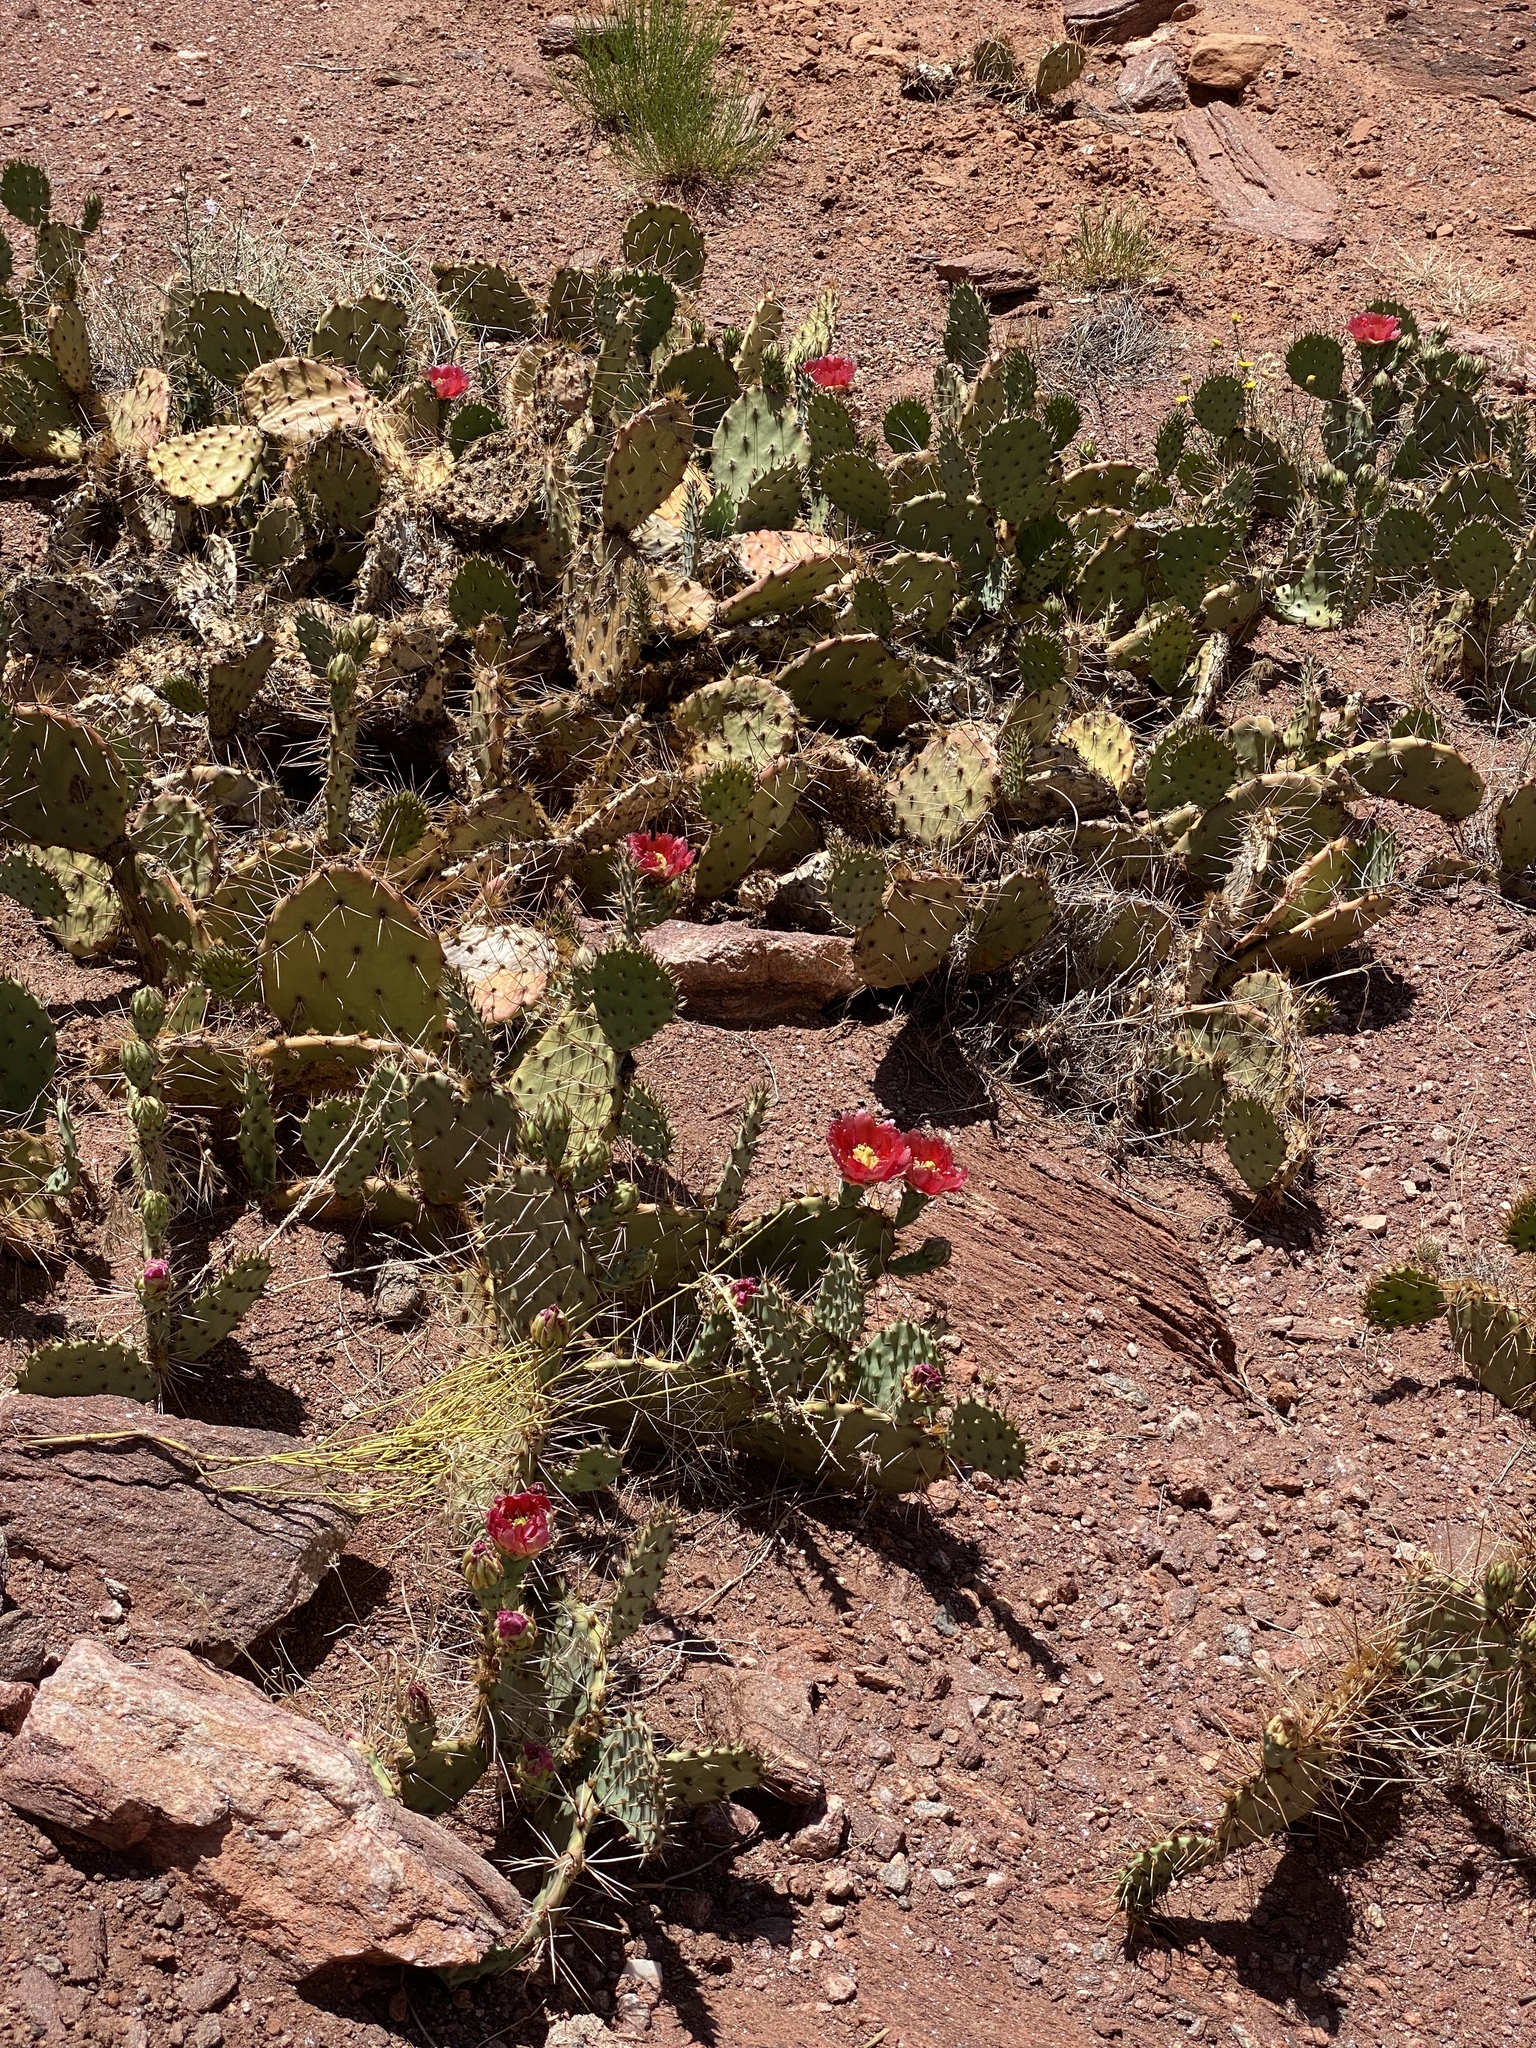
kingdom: Plantae
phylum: Tracheophyta
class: Magnoliopsida
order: Caryophyllales
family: Cactaceae
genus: Opuntia
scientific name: Opuntia phaeacantha
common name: New mexico prickly-pear
